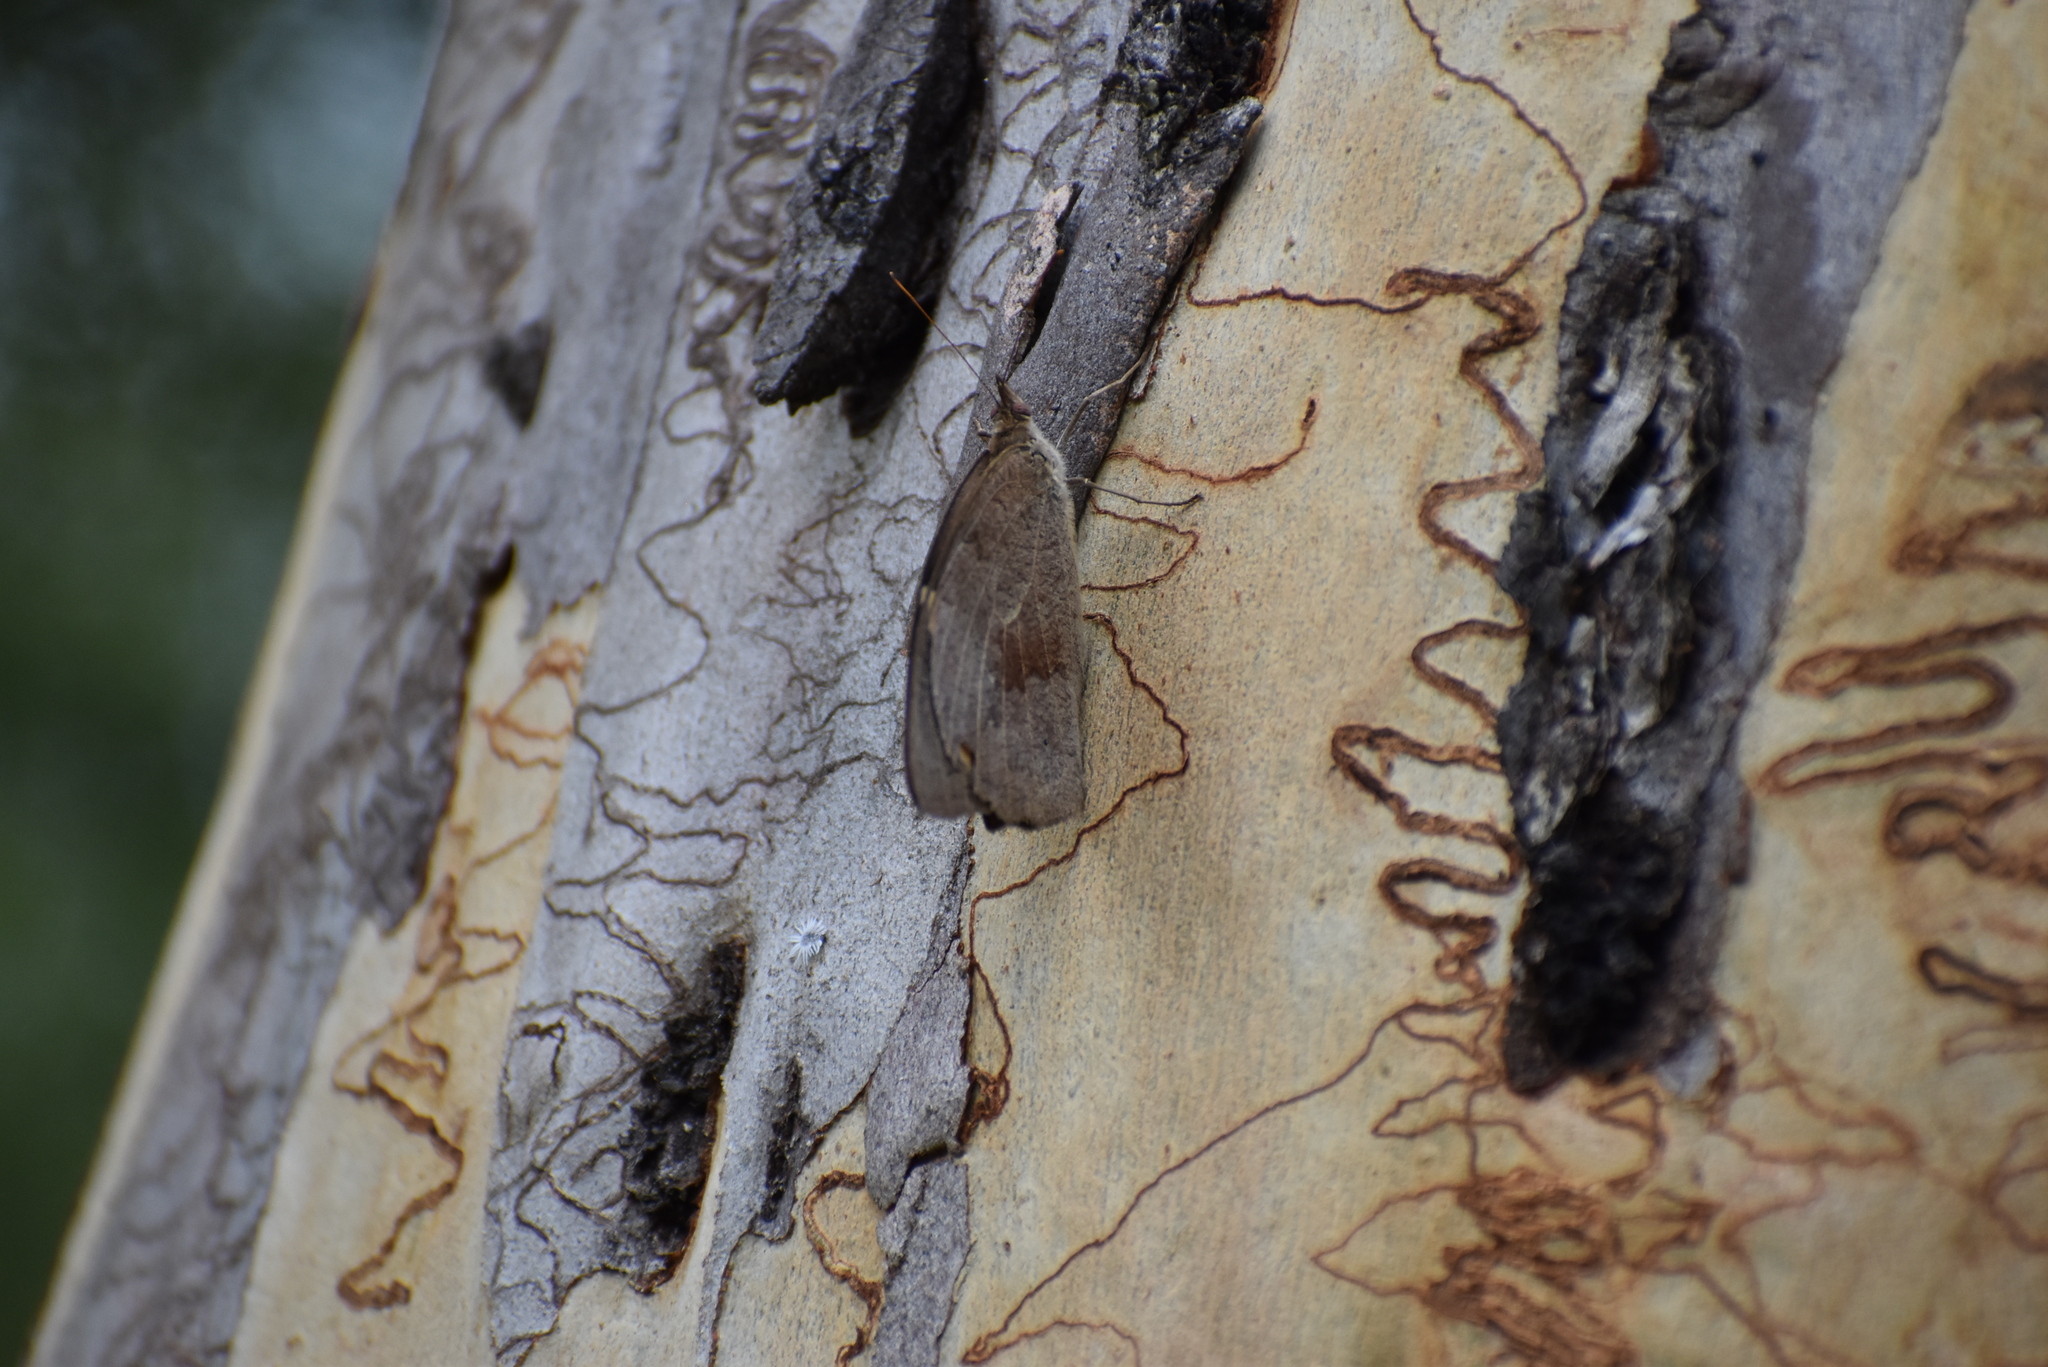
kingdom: Animalia
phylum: Arthropoda
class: Insecta
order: Lepidoptera
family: Nymphalidae
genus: Heteronympha
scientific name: Heteronympha merope
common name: Common brown
